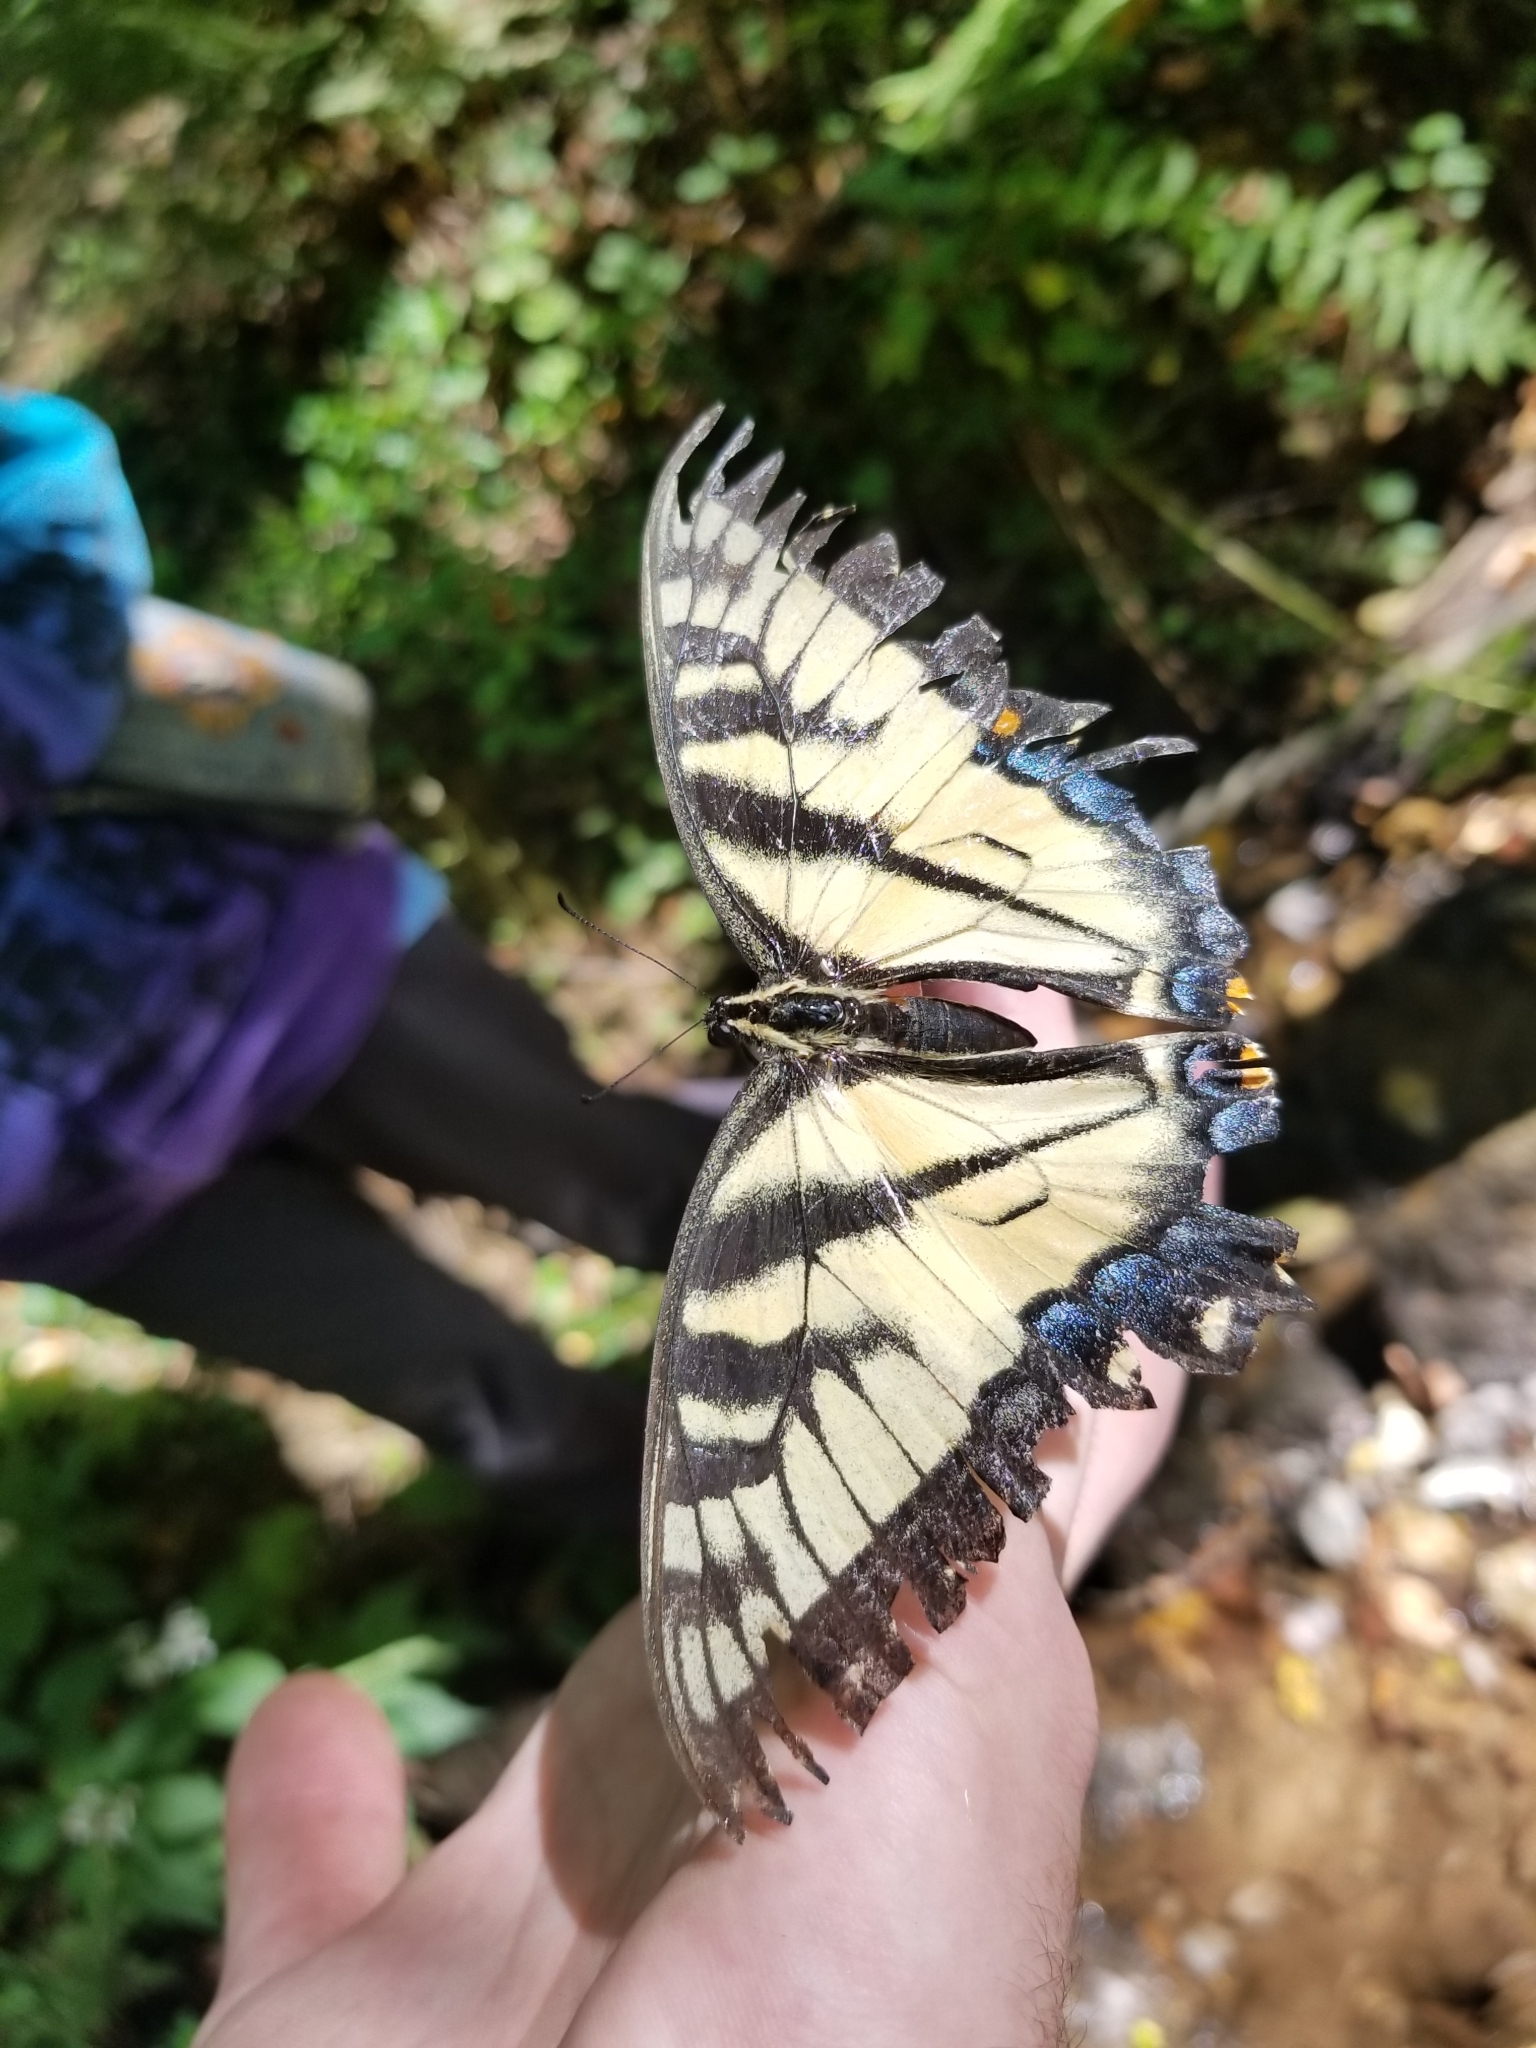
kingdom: Animalia
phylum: Arthropoda
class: Insecta
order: Lepidoptera
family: Papilionidae
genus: Papilio
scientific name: Papilio glaucus
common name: Tiger swallowtail
